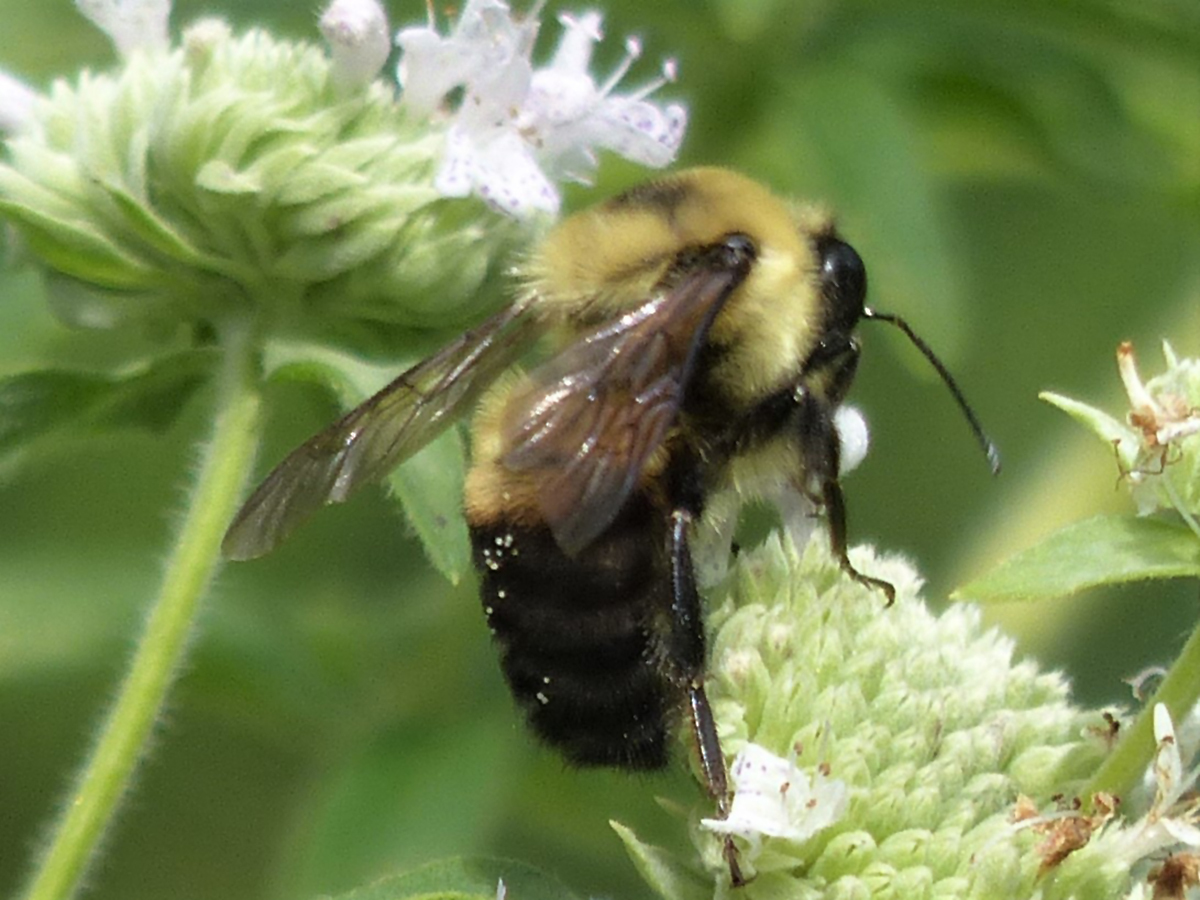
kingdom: Animalia
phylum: Arthropoda
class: Insecta
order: Hymenoptera
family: Apidae
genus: Bombus
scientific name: Bombus griseocollis
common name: Brown-belted bumble bee
